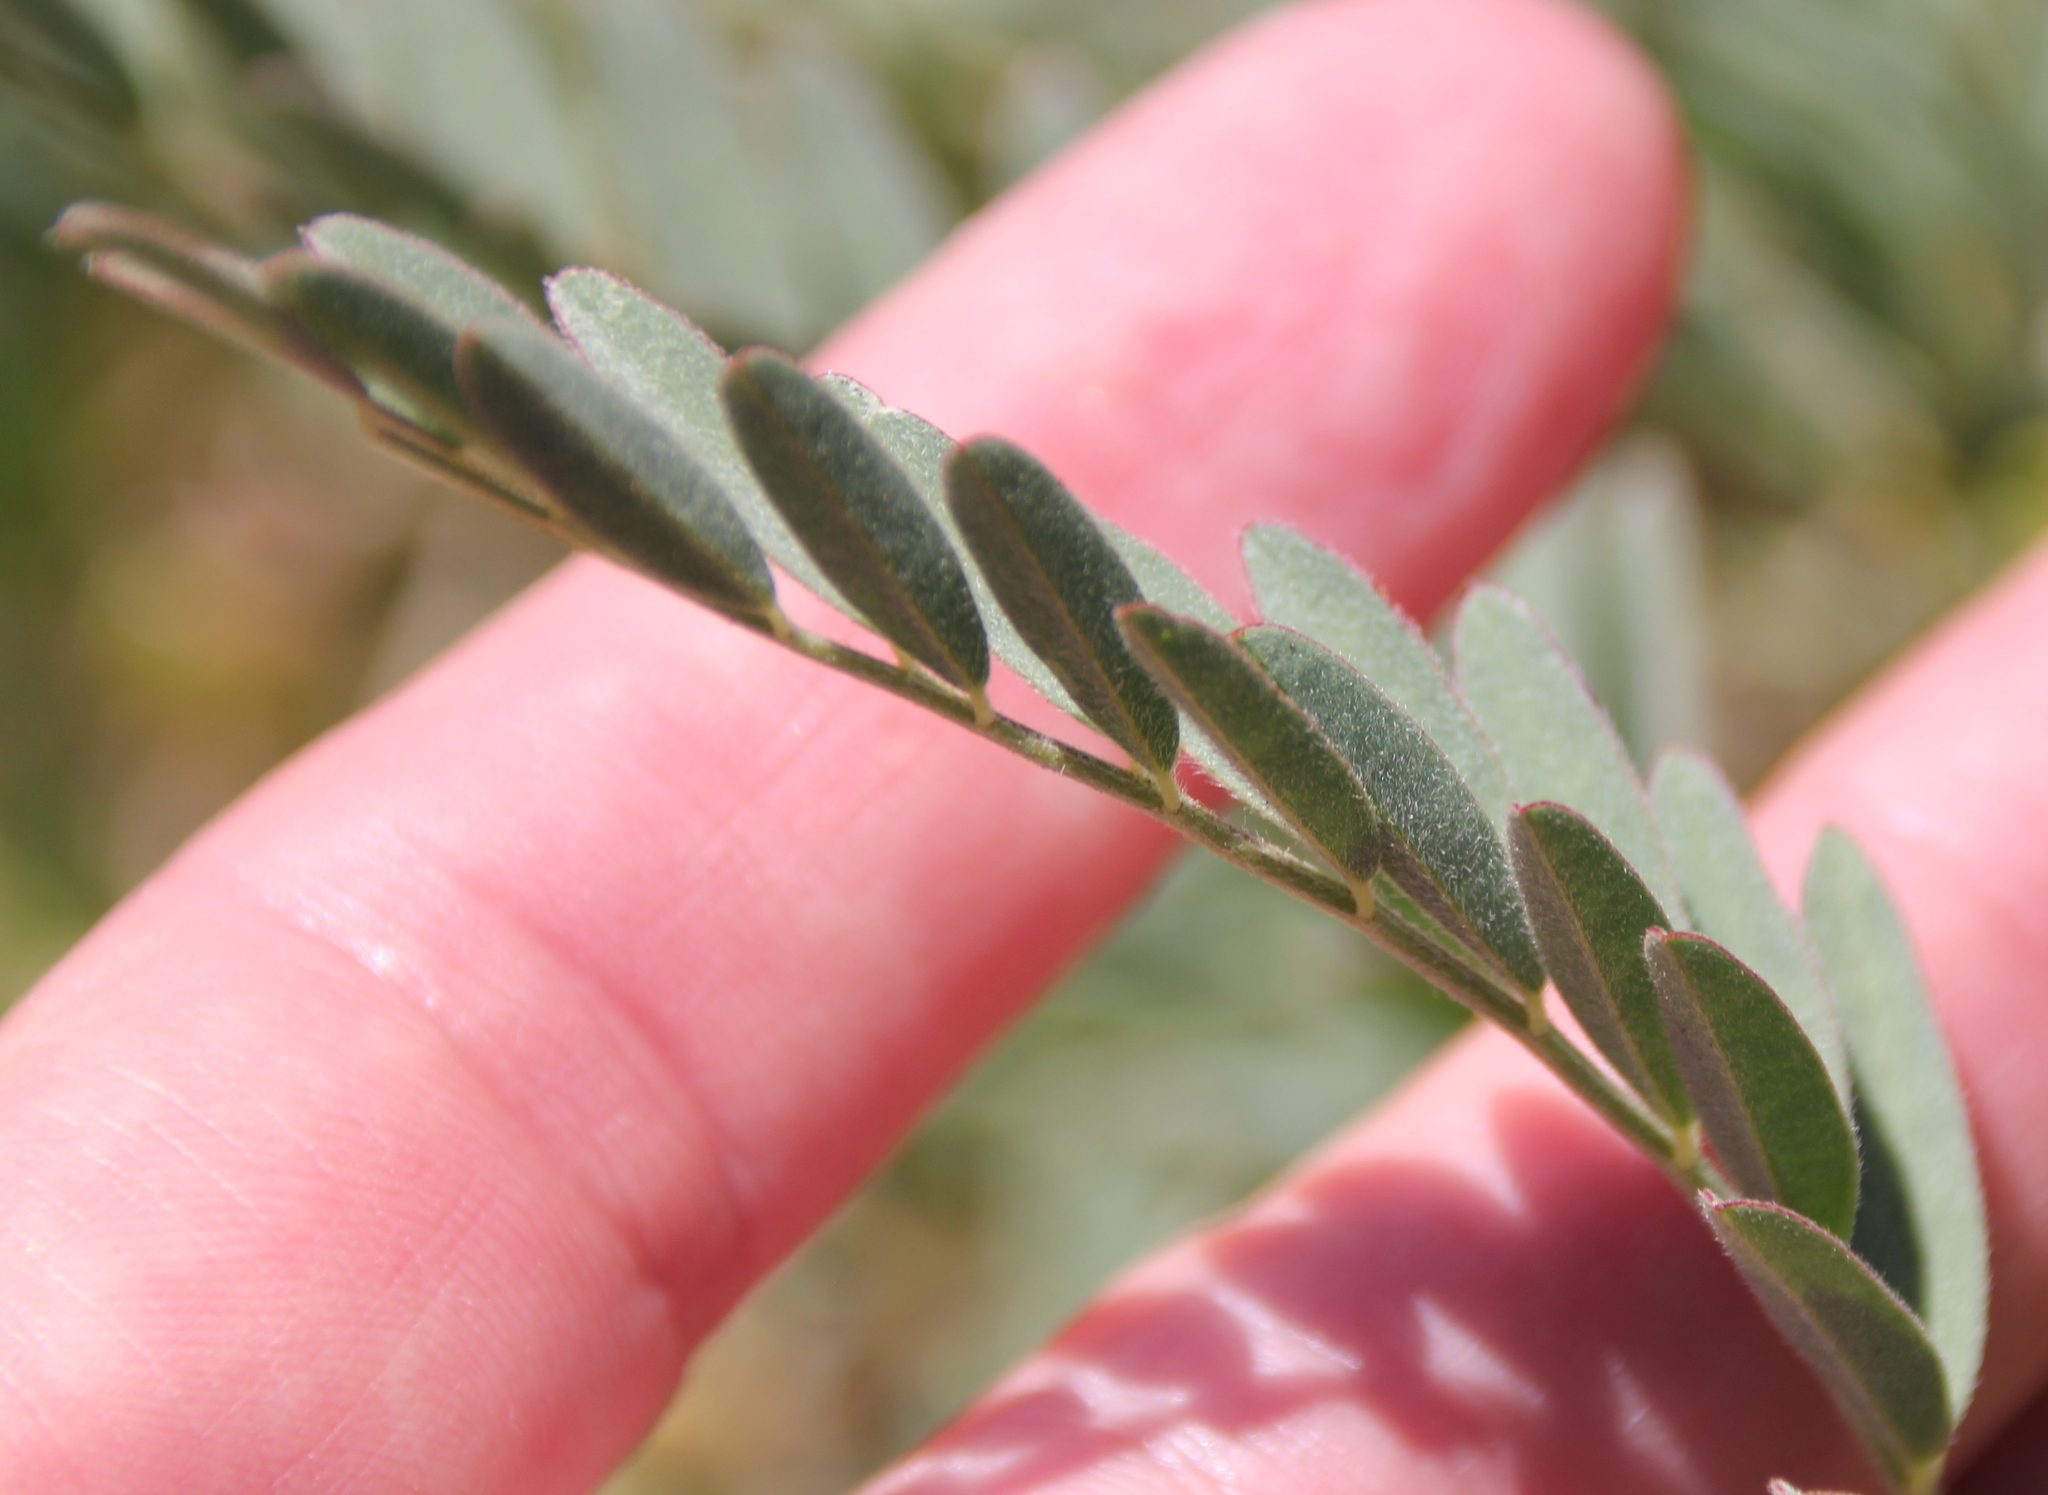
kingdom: Plantae
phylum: Tracheophyta
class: Magnoliopsida
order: Fabales
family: Fabaceae
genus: Astragalus
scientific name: Astragalus douglasii
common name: Jacumba milkvetch
